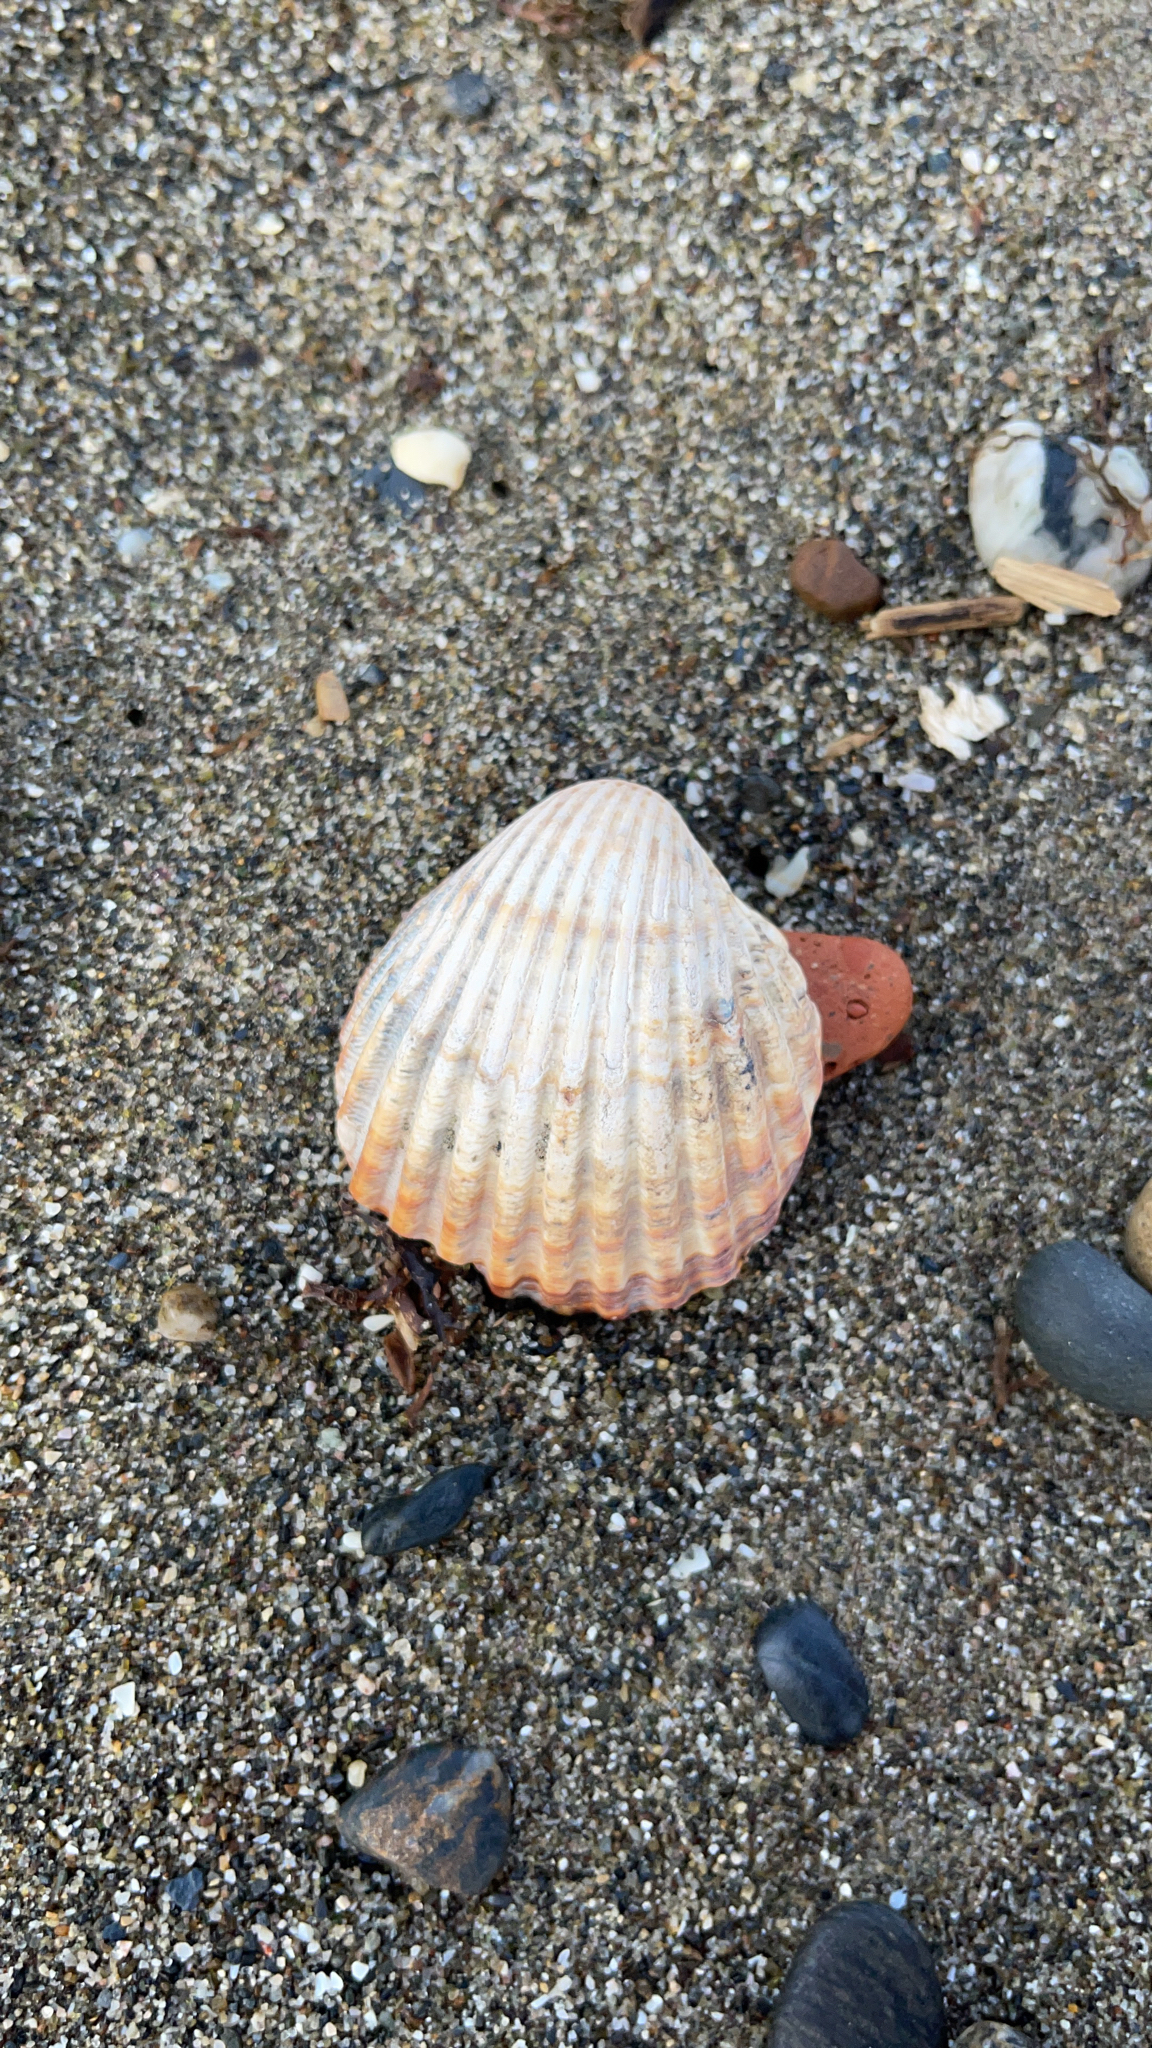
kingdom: Animalia
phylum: Mollusca
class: Bivalvia
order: Cardiida
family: Cardiidae
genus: Acanthocardia
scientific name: Acanthocardia tuberculata
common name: Rough cockle
